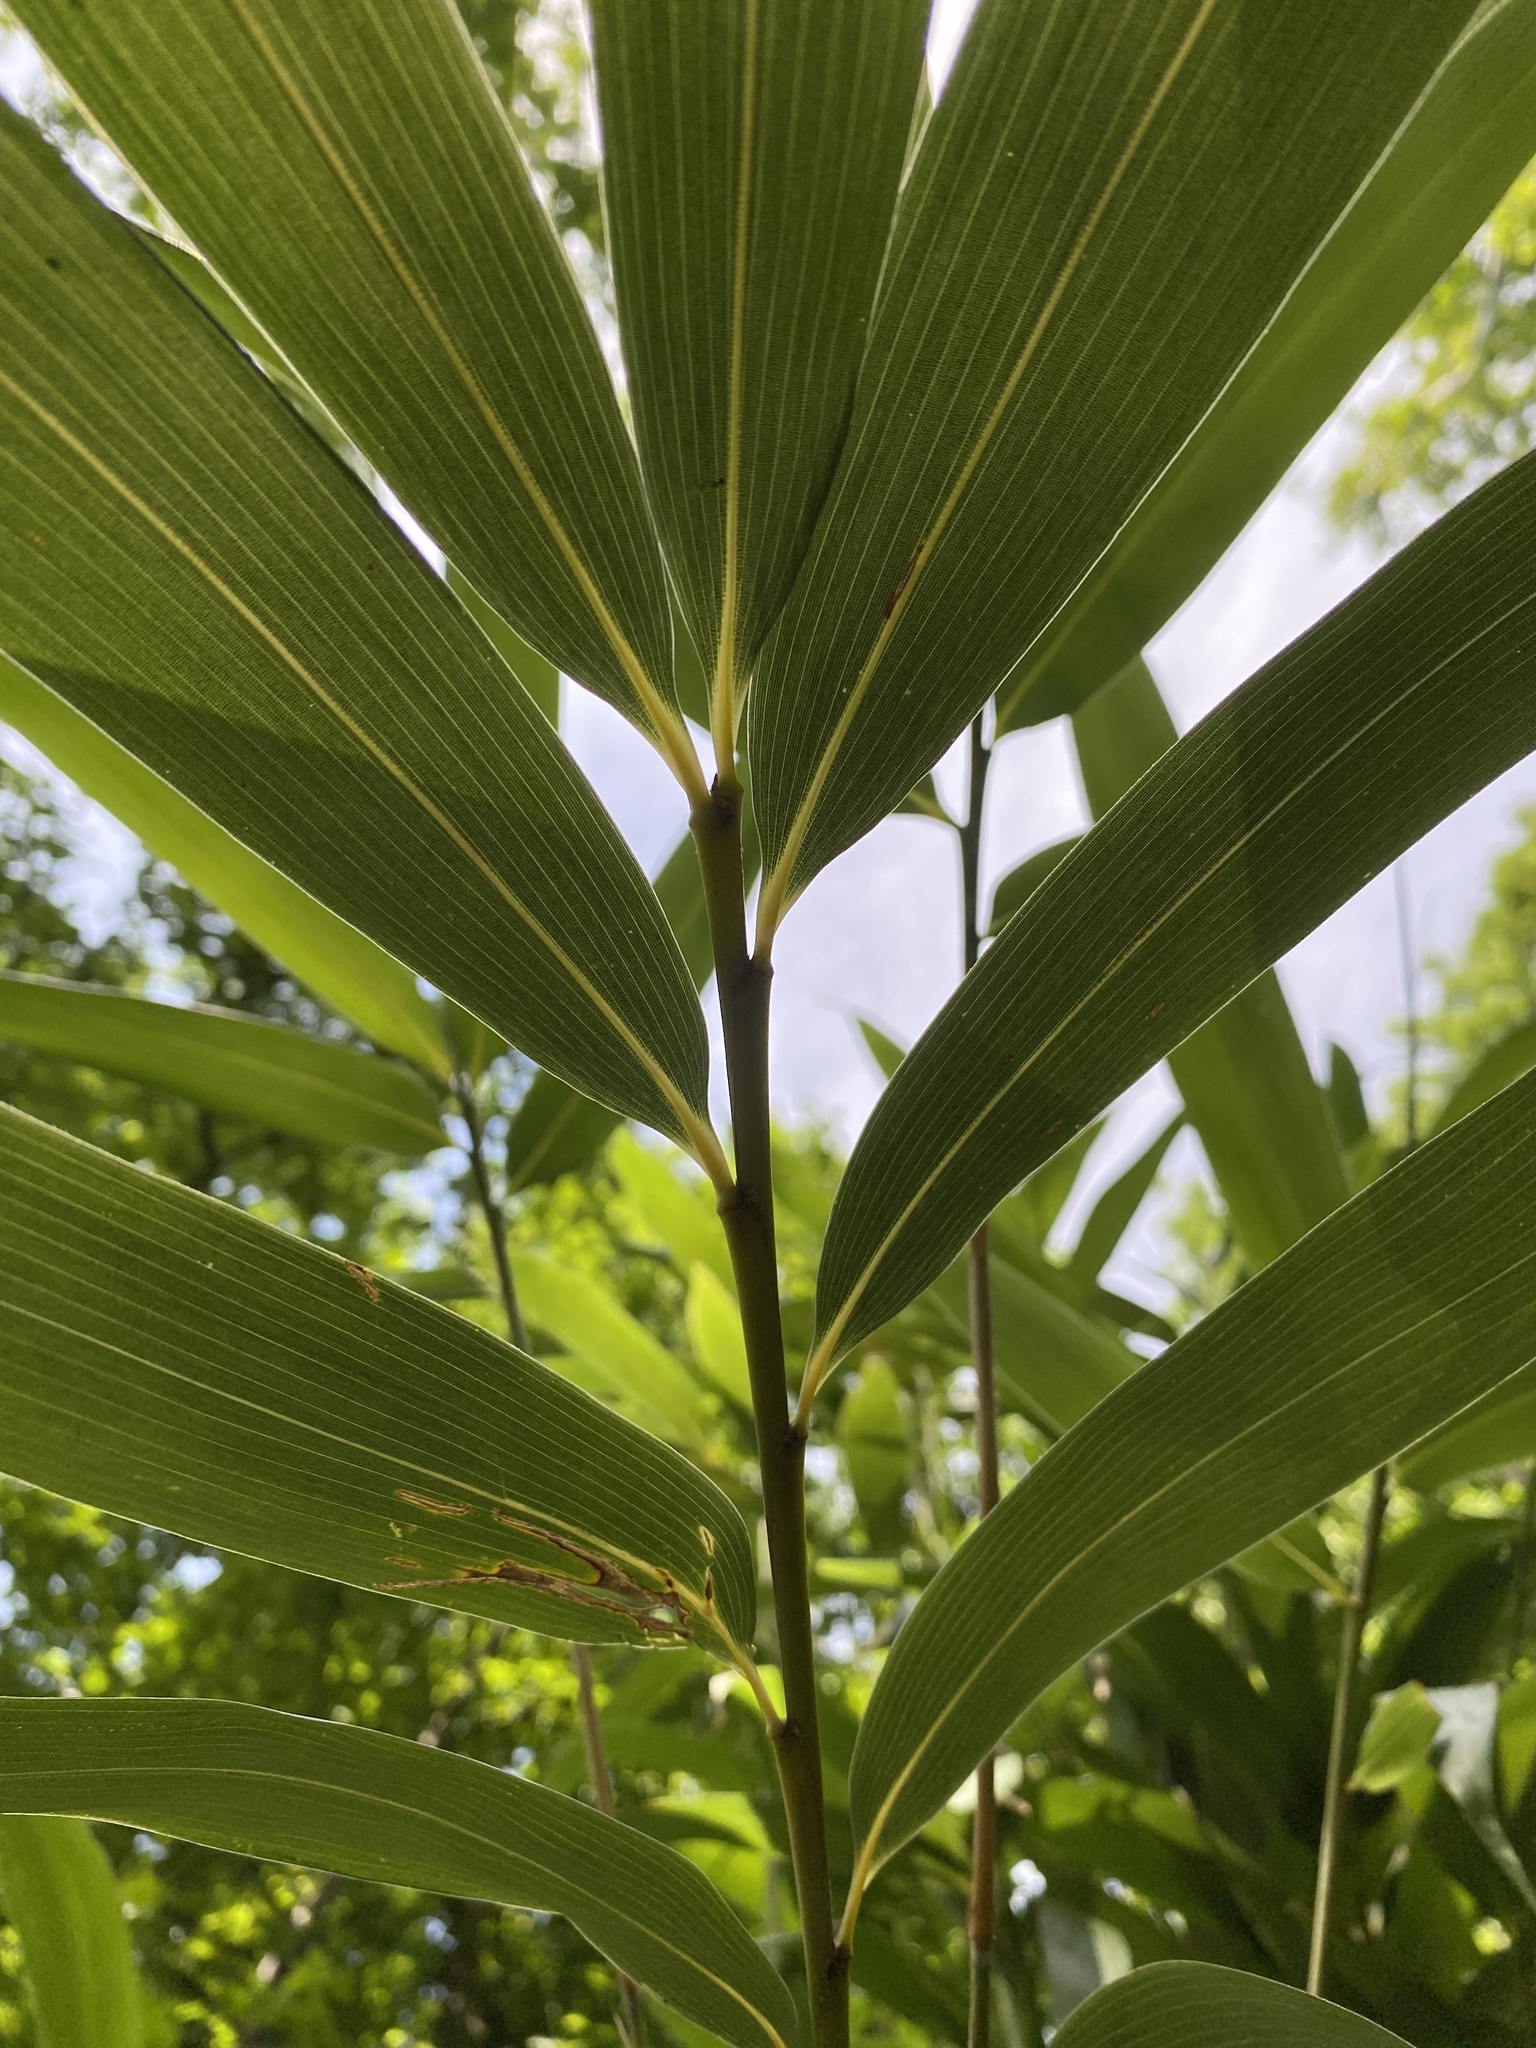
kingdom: Plantae
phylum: Tracheophyta
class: Liliopsida
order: Poales
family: Poaceae
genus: Pseudosasa
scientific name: Pseudosasa japonica
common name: Arrow bamboo
